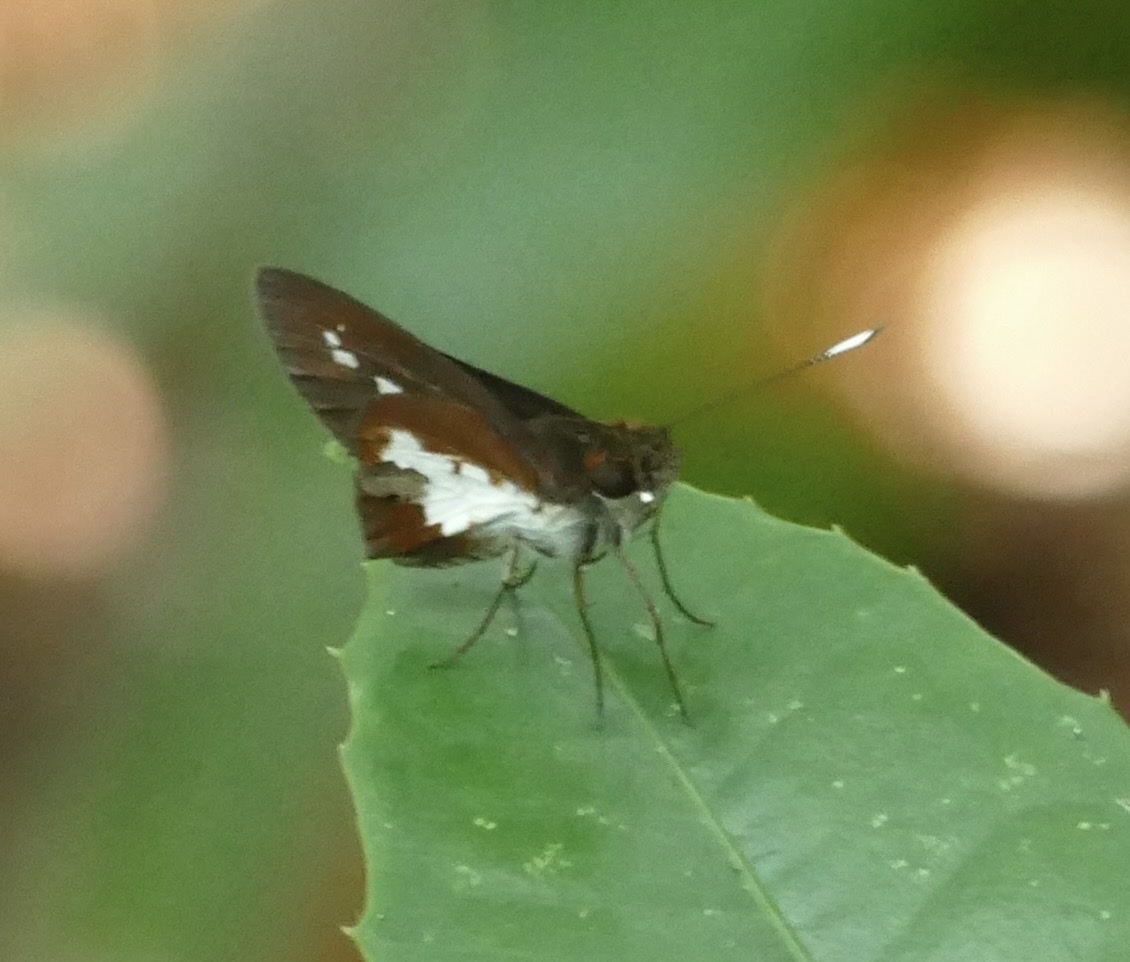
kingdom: Animalia
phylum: Arthropoda
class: Insecta
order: Lepidoptera
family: Hesperiidae
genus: Sabera
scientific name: Sabera caesina
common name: White-clubbed swift
